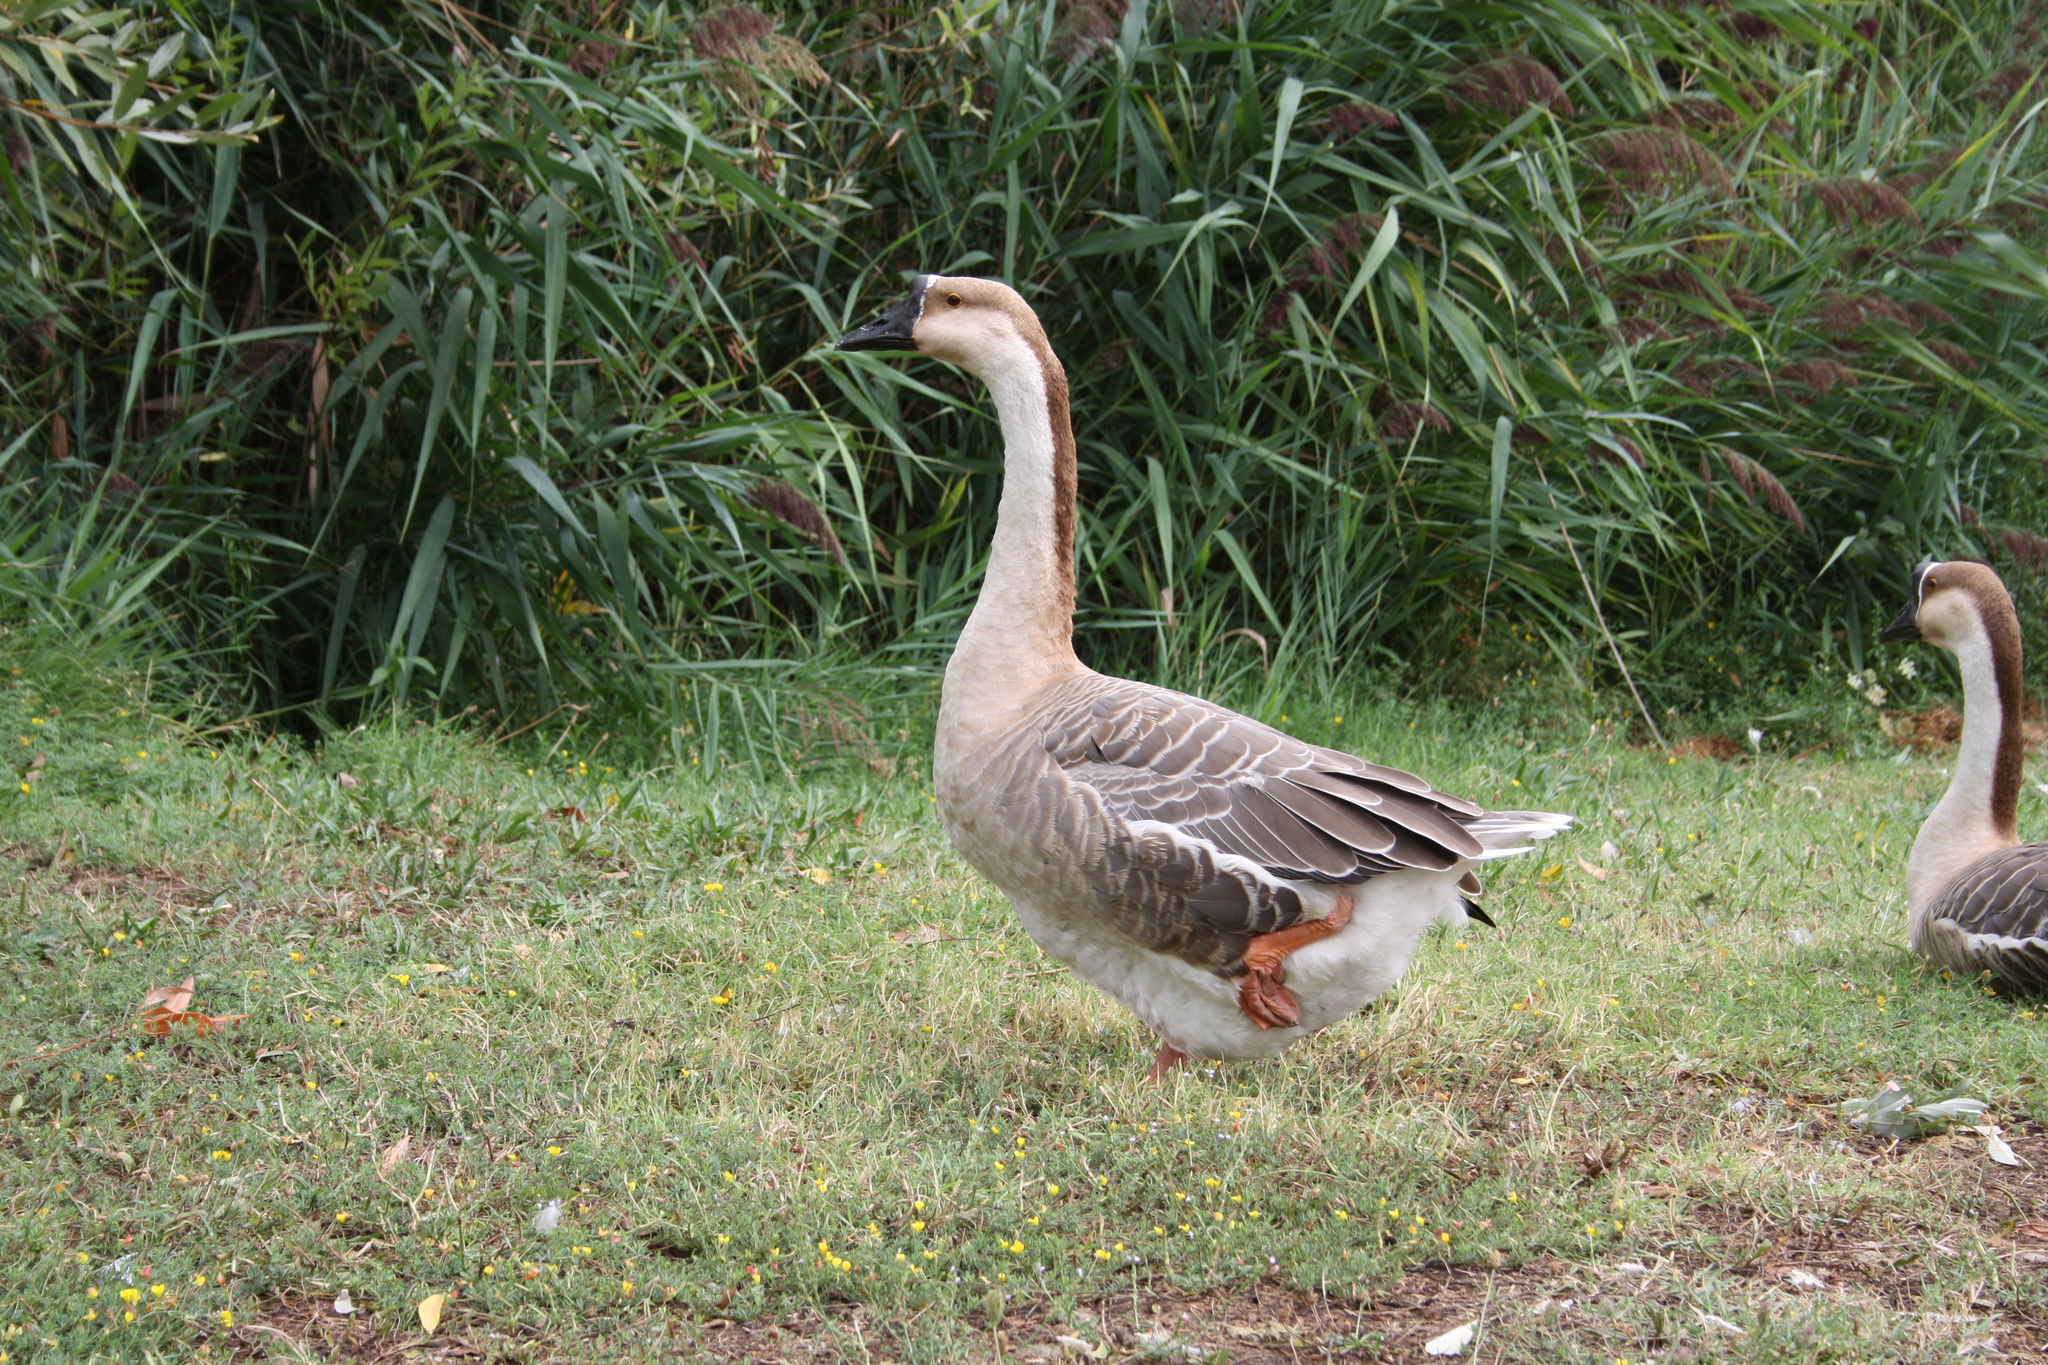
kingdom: Animalia
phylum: Chordata
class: Aves
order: Anseriformes
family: Anatidae
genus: Anser
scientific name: Anser cygnoides
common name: Swan goose
